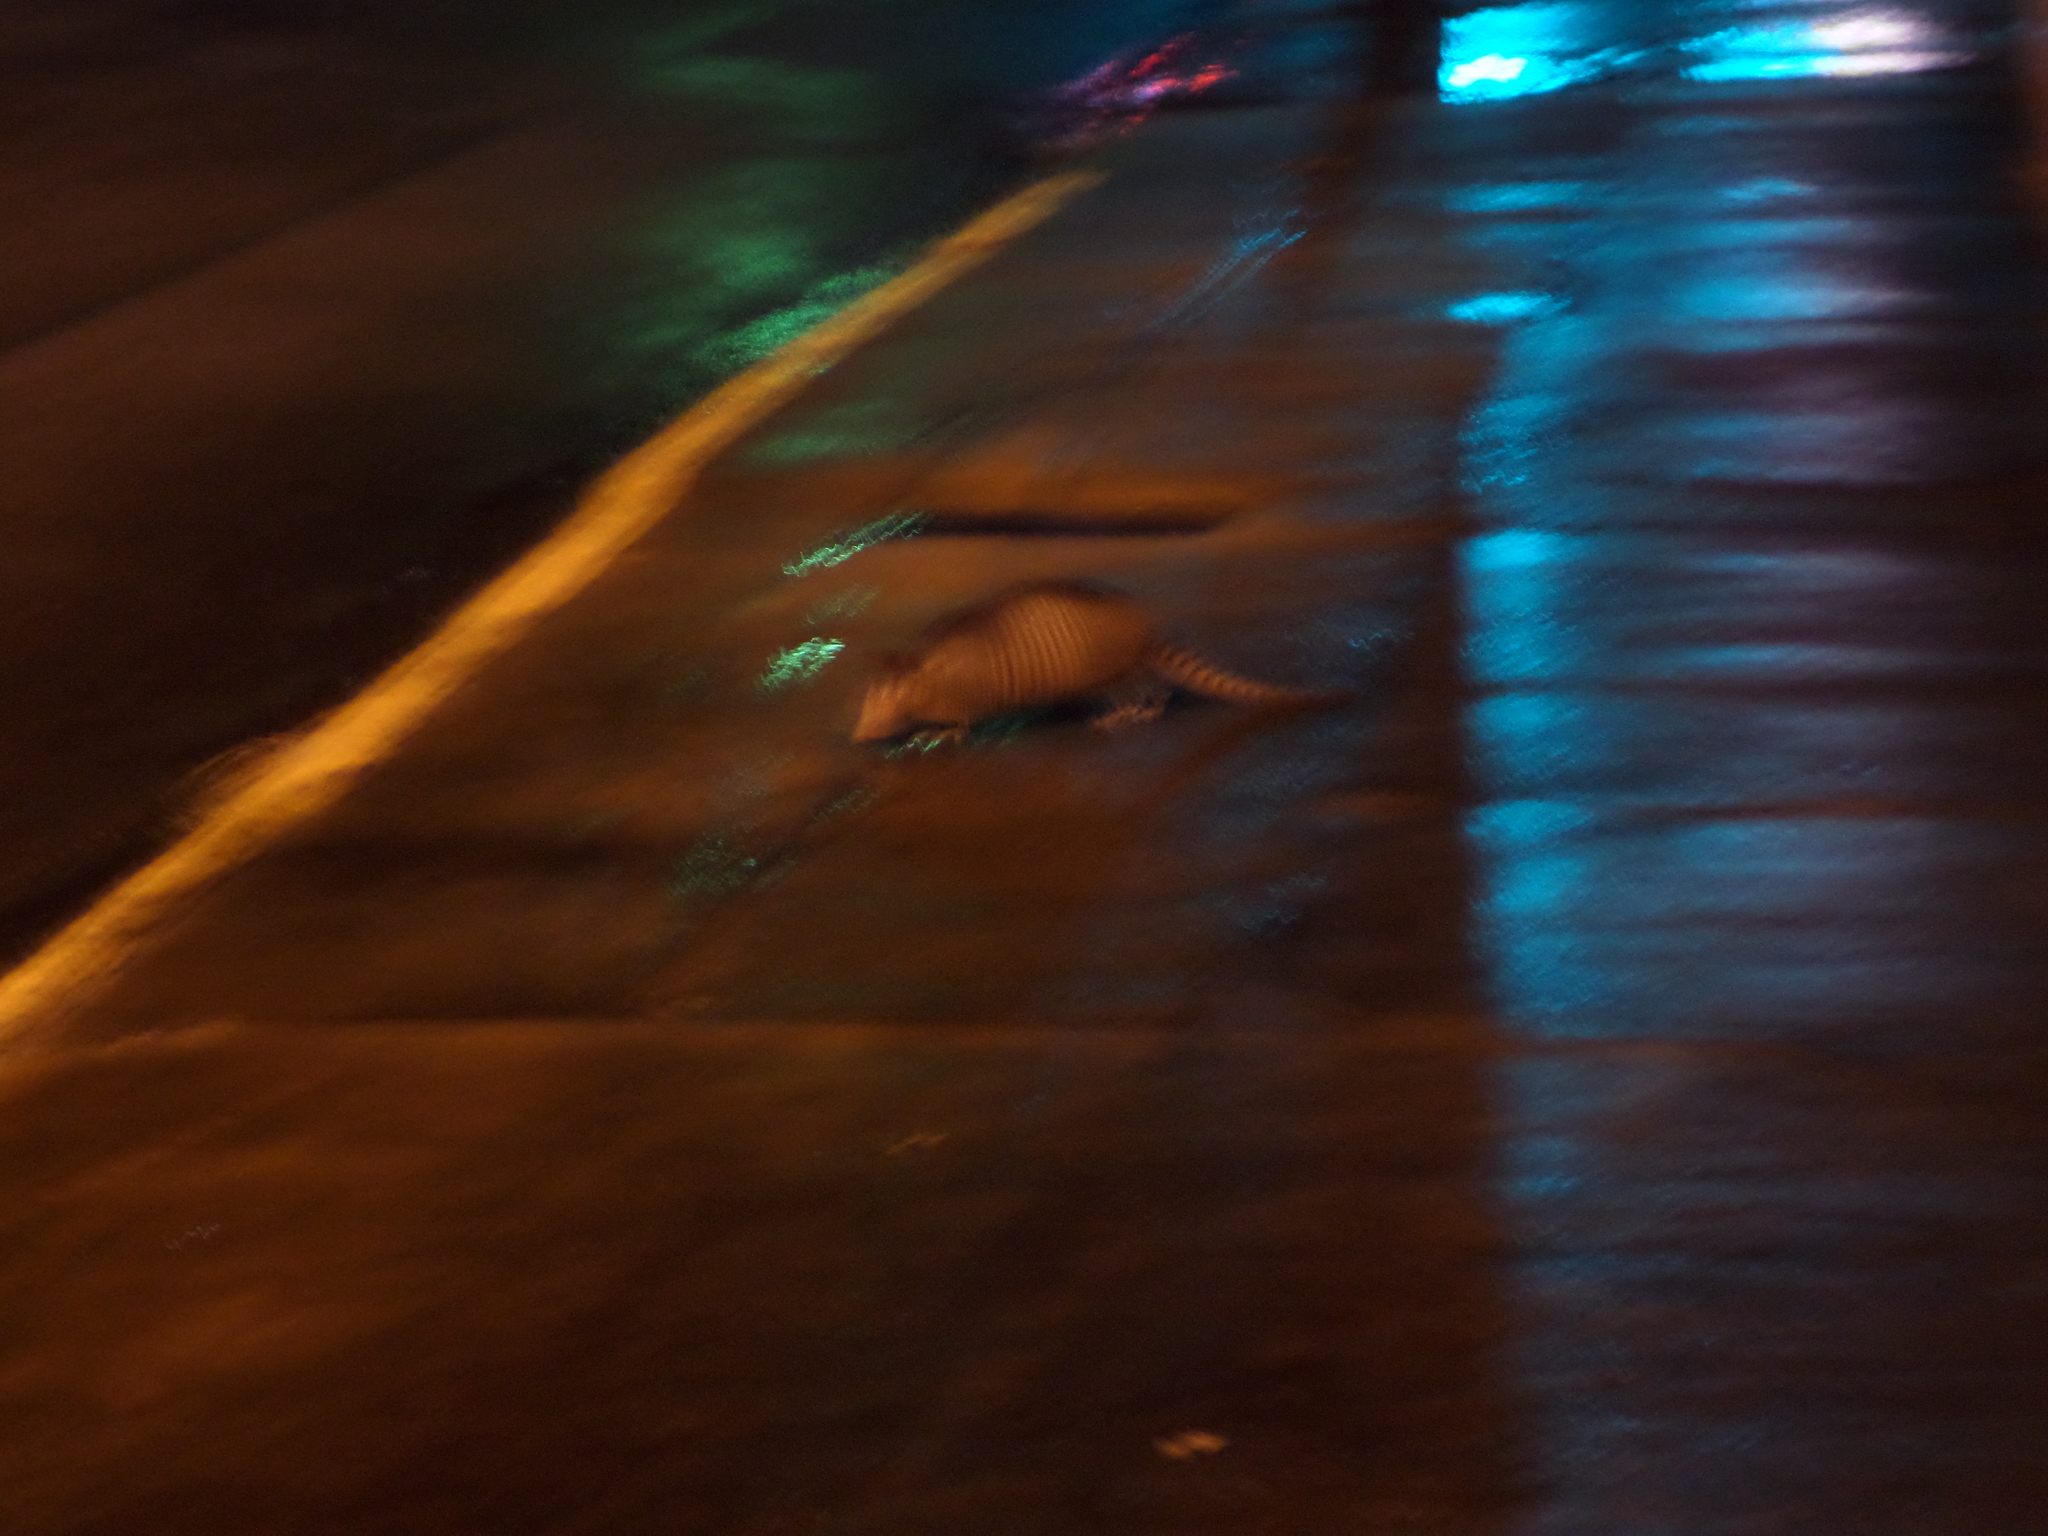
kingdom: Animalia
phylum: Chordata
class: Mammalia
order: Cingulata
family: Dasypodidae
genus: Dasypus
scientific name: Dasypus novemcinctus
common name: Nine-banded armadillo
